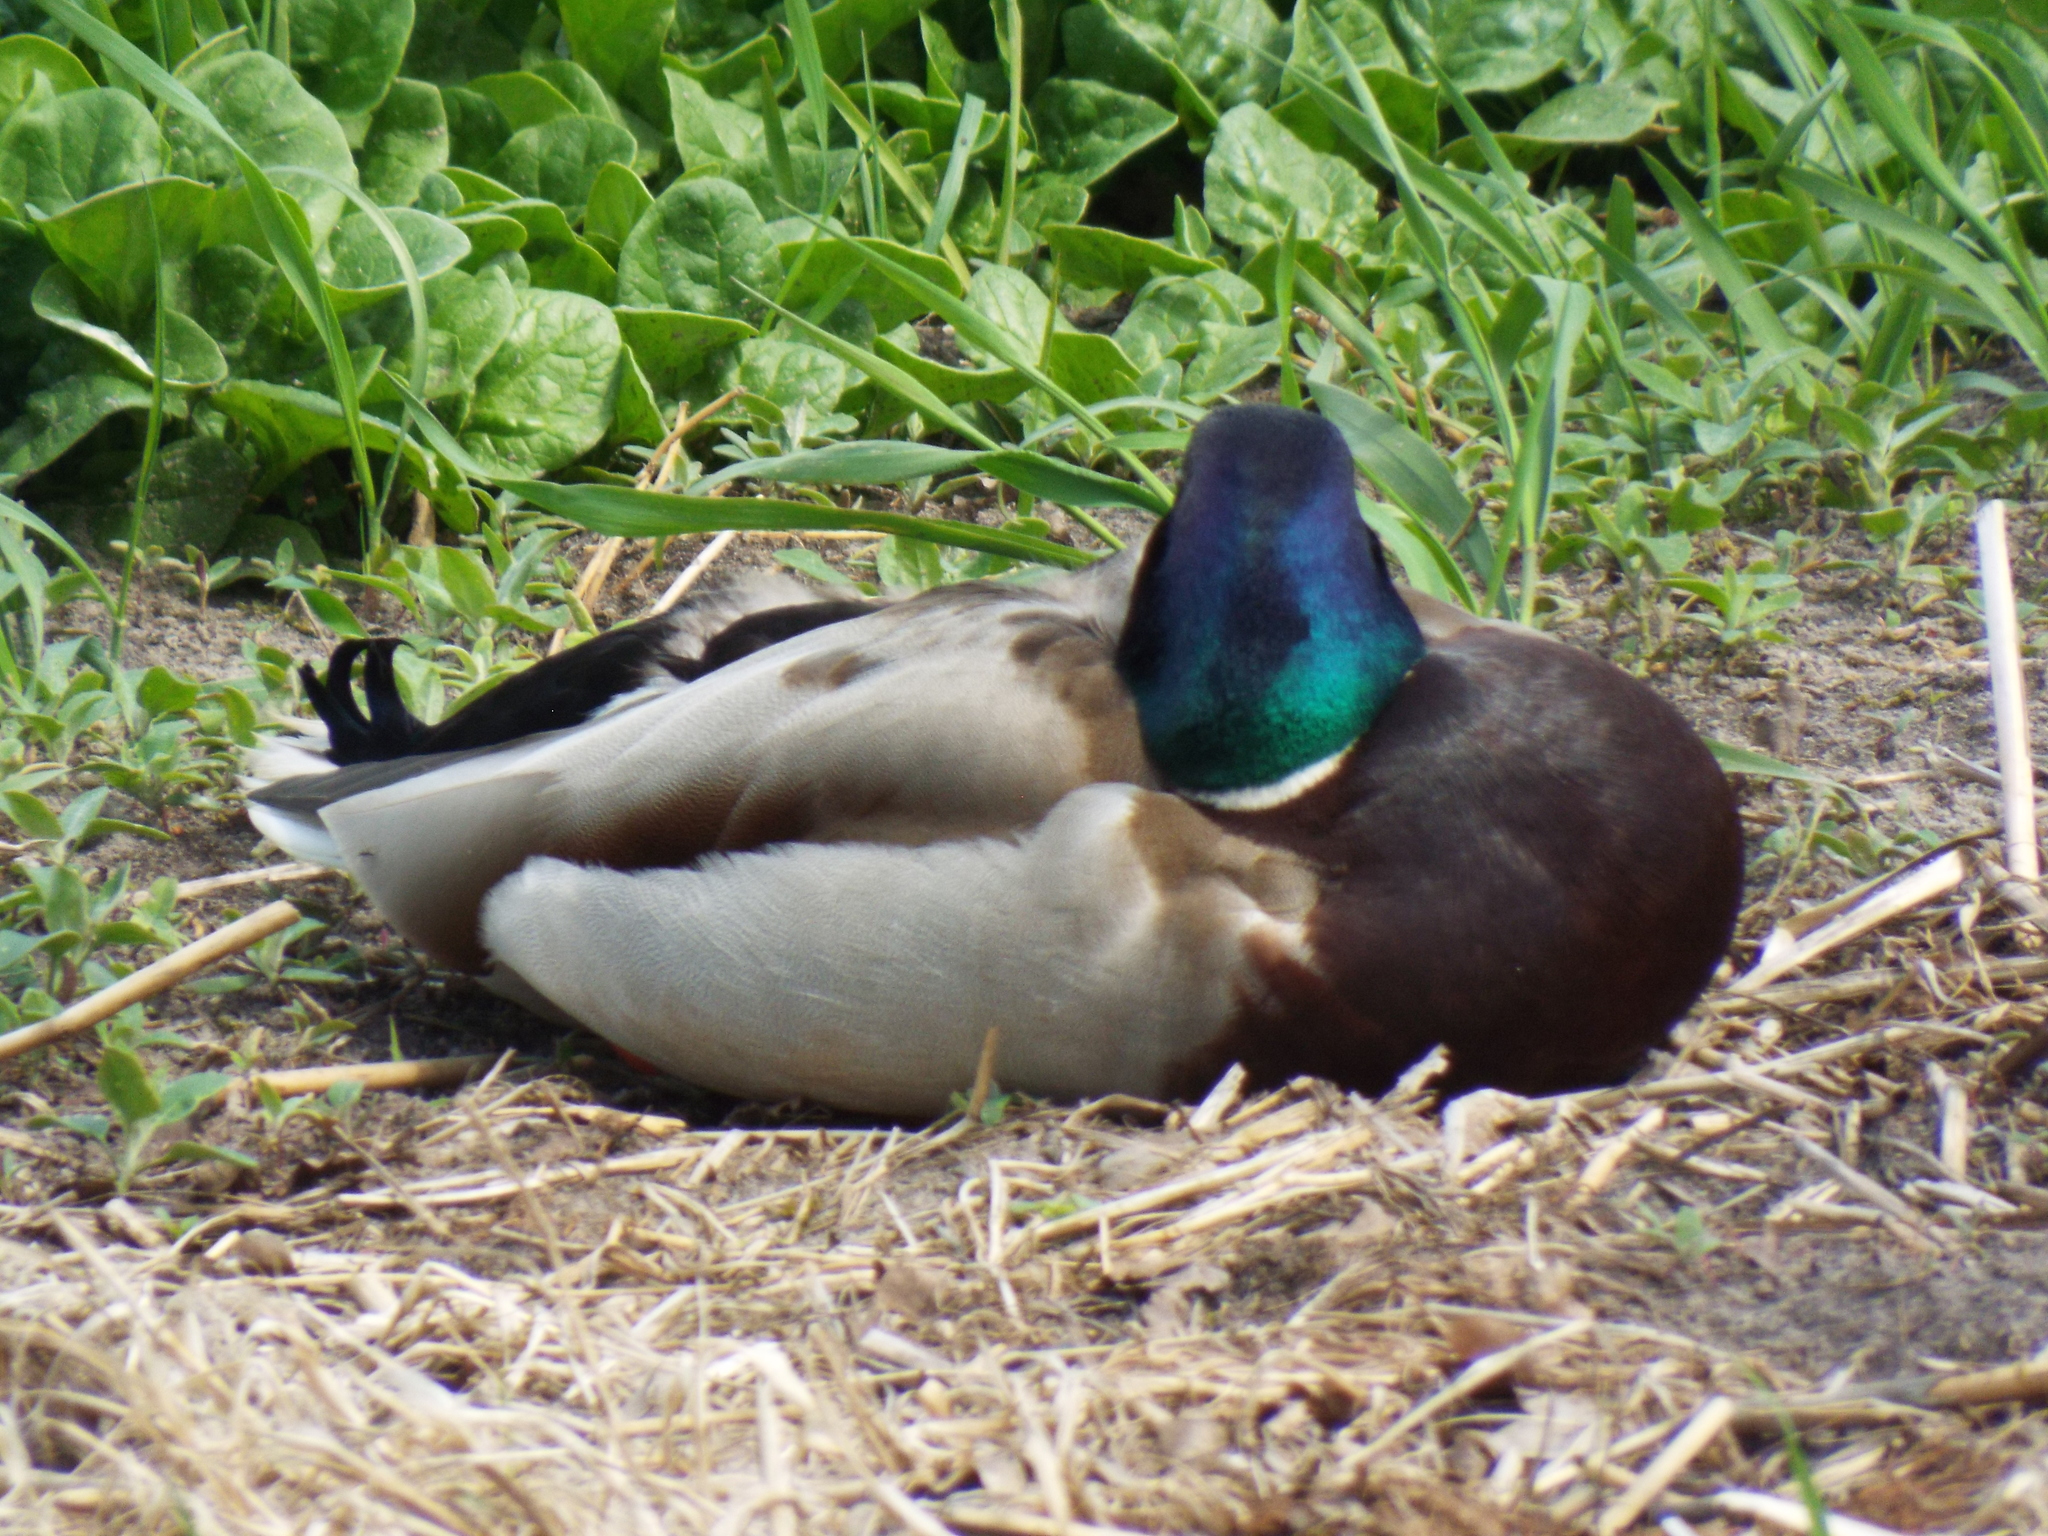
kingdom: Animalia
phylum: Chordata
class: Aves
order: Anseriformes
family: Anatidae
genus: Anas
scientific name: Anas platyrhynchos
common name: Mallard
